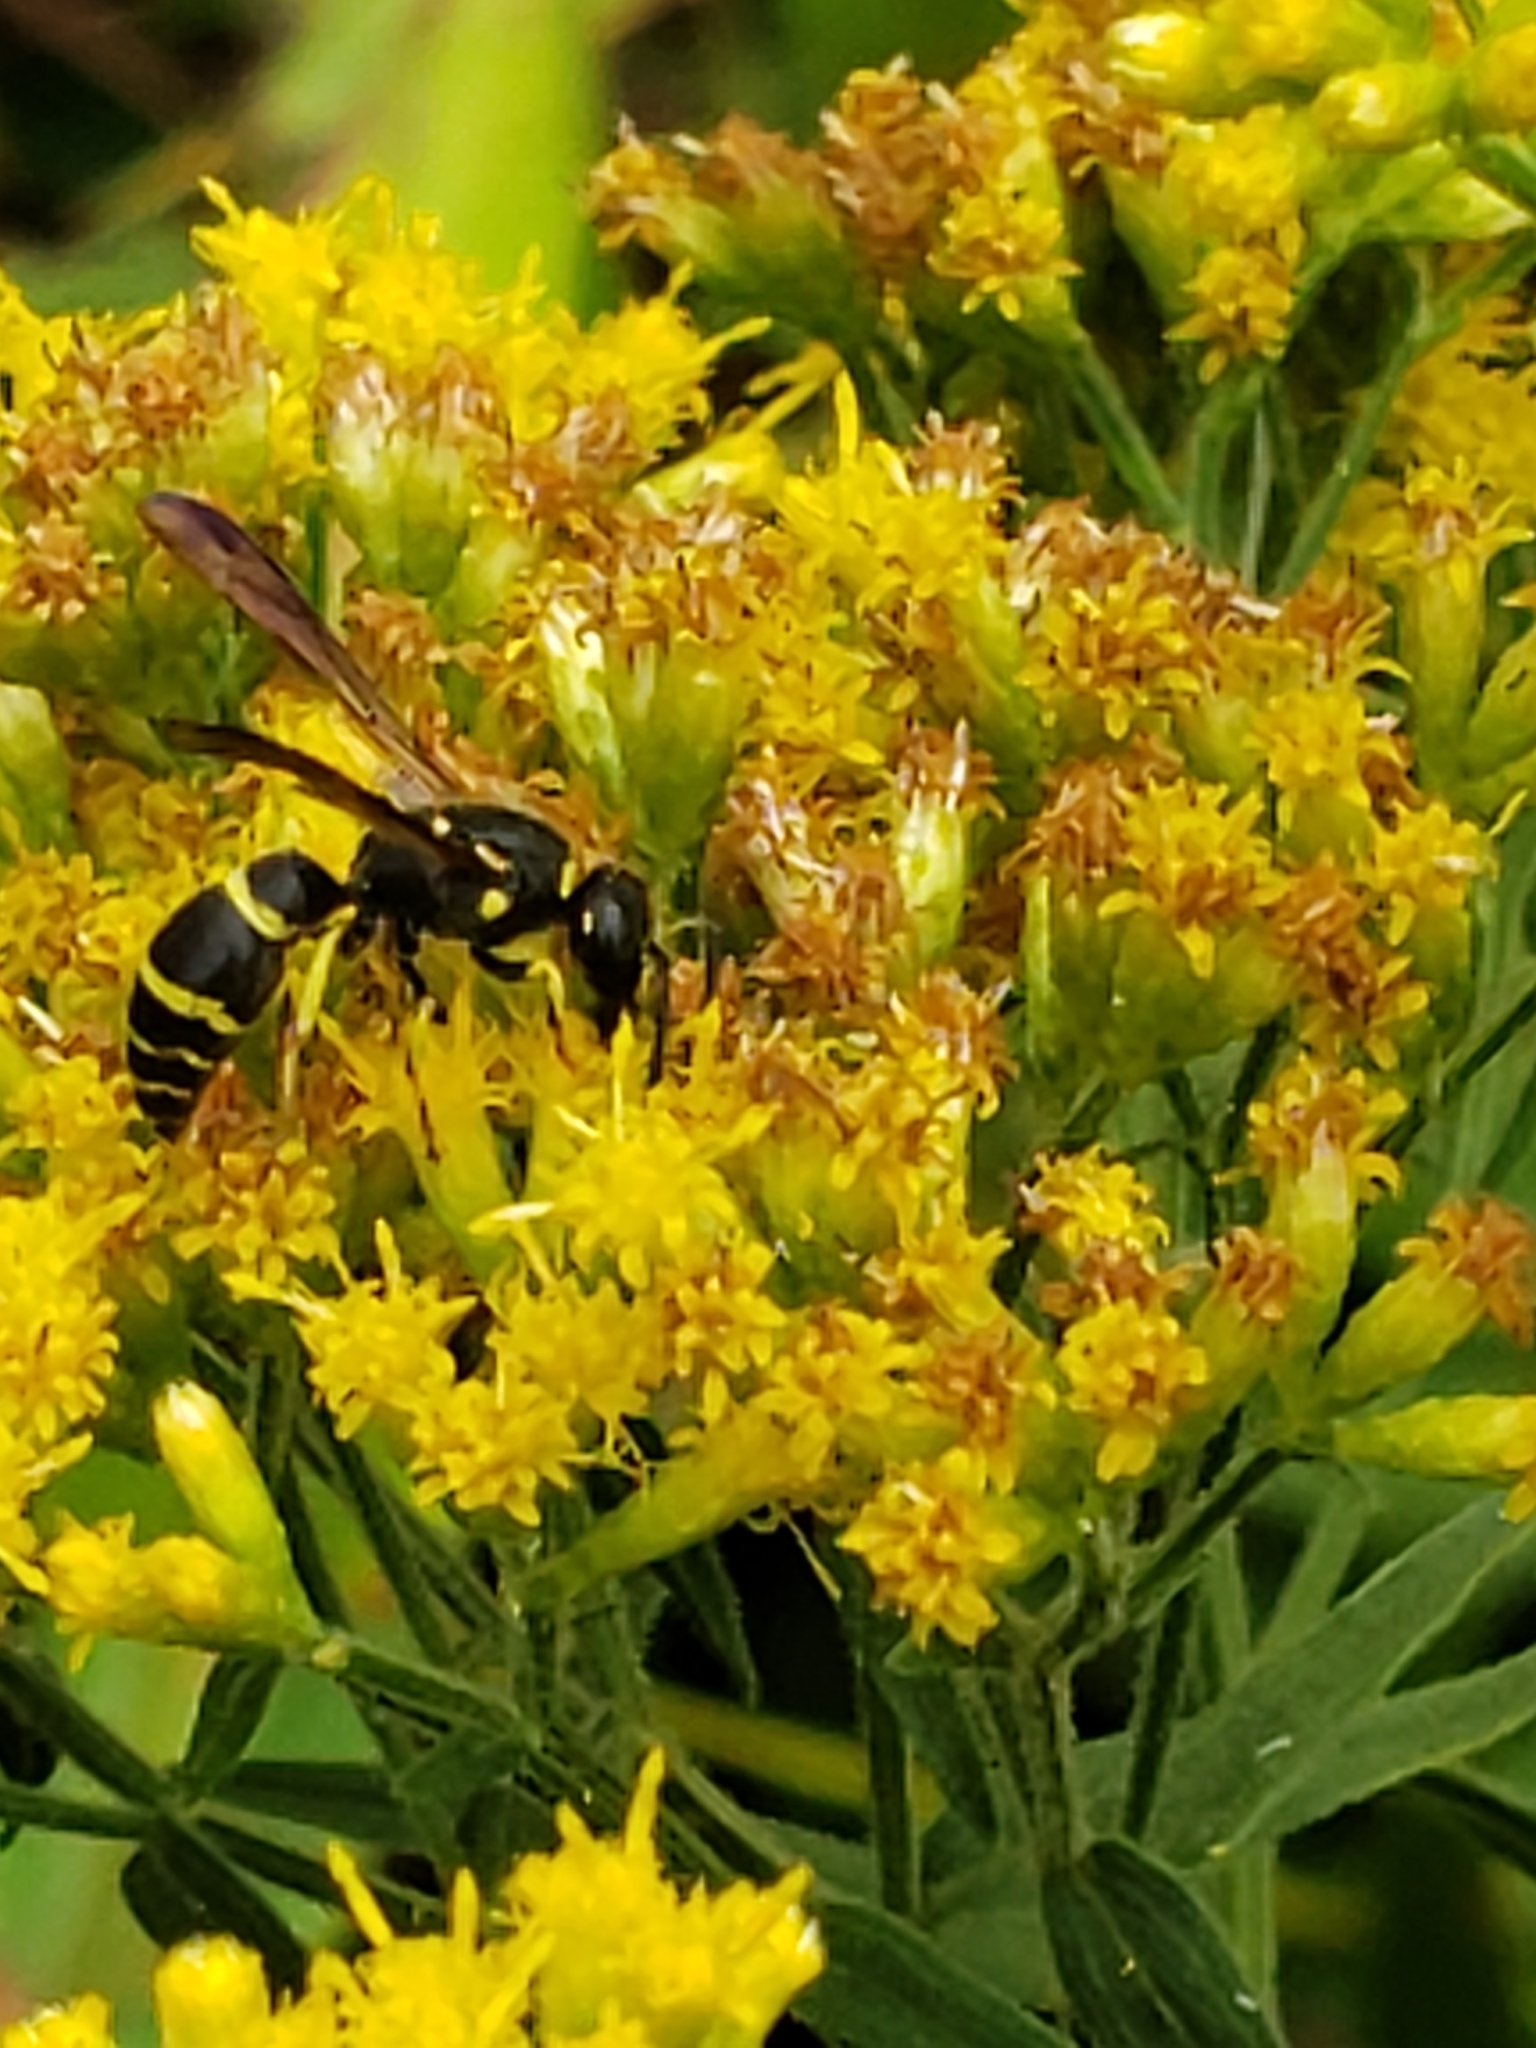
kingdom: Animalia
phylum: Arthropoda
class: Insecta
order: Hymenoptera
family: Vespidae
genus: Ancistrocerus
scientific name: Ancistrocerus adiabatus
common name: Bramble mason wasp
